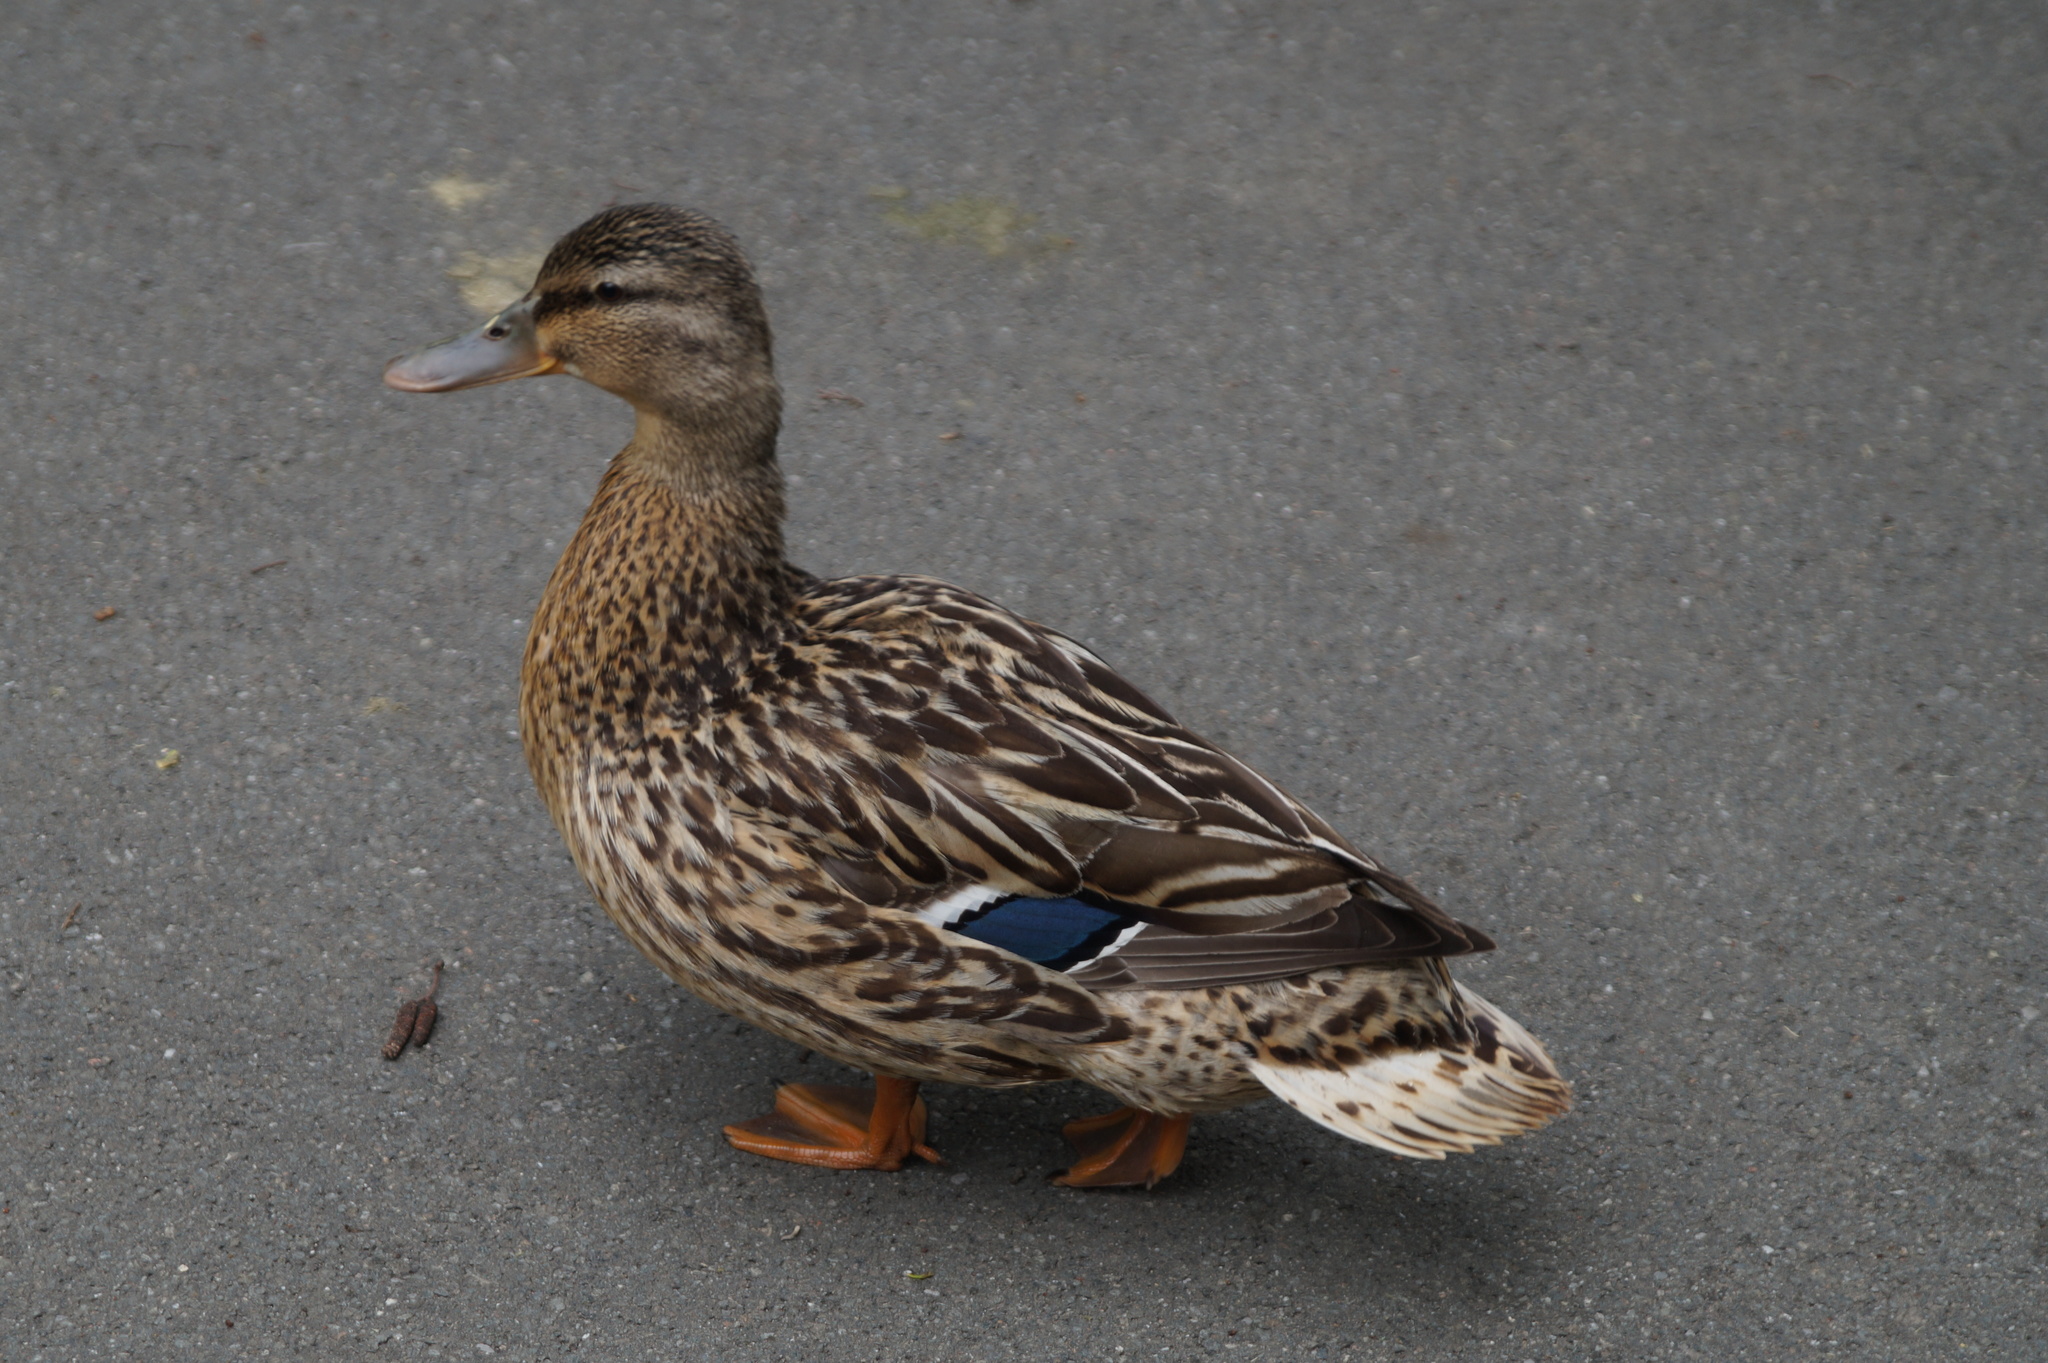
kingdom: Animalia
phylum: Chordata
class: Aves
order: Anseriformes
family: Anatidae
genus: Anas
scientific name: Anas platyrhynchos
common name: Mallard
